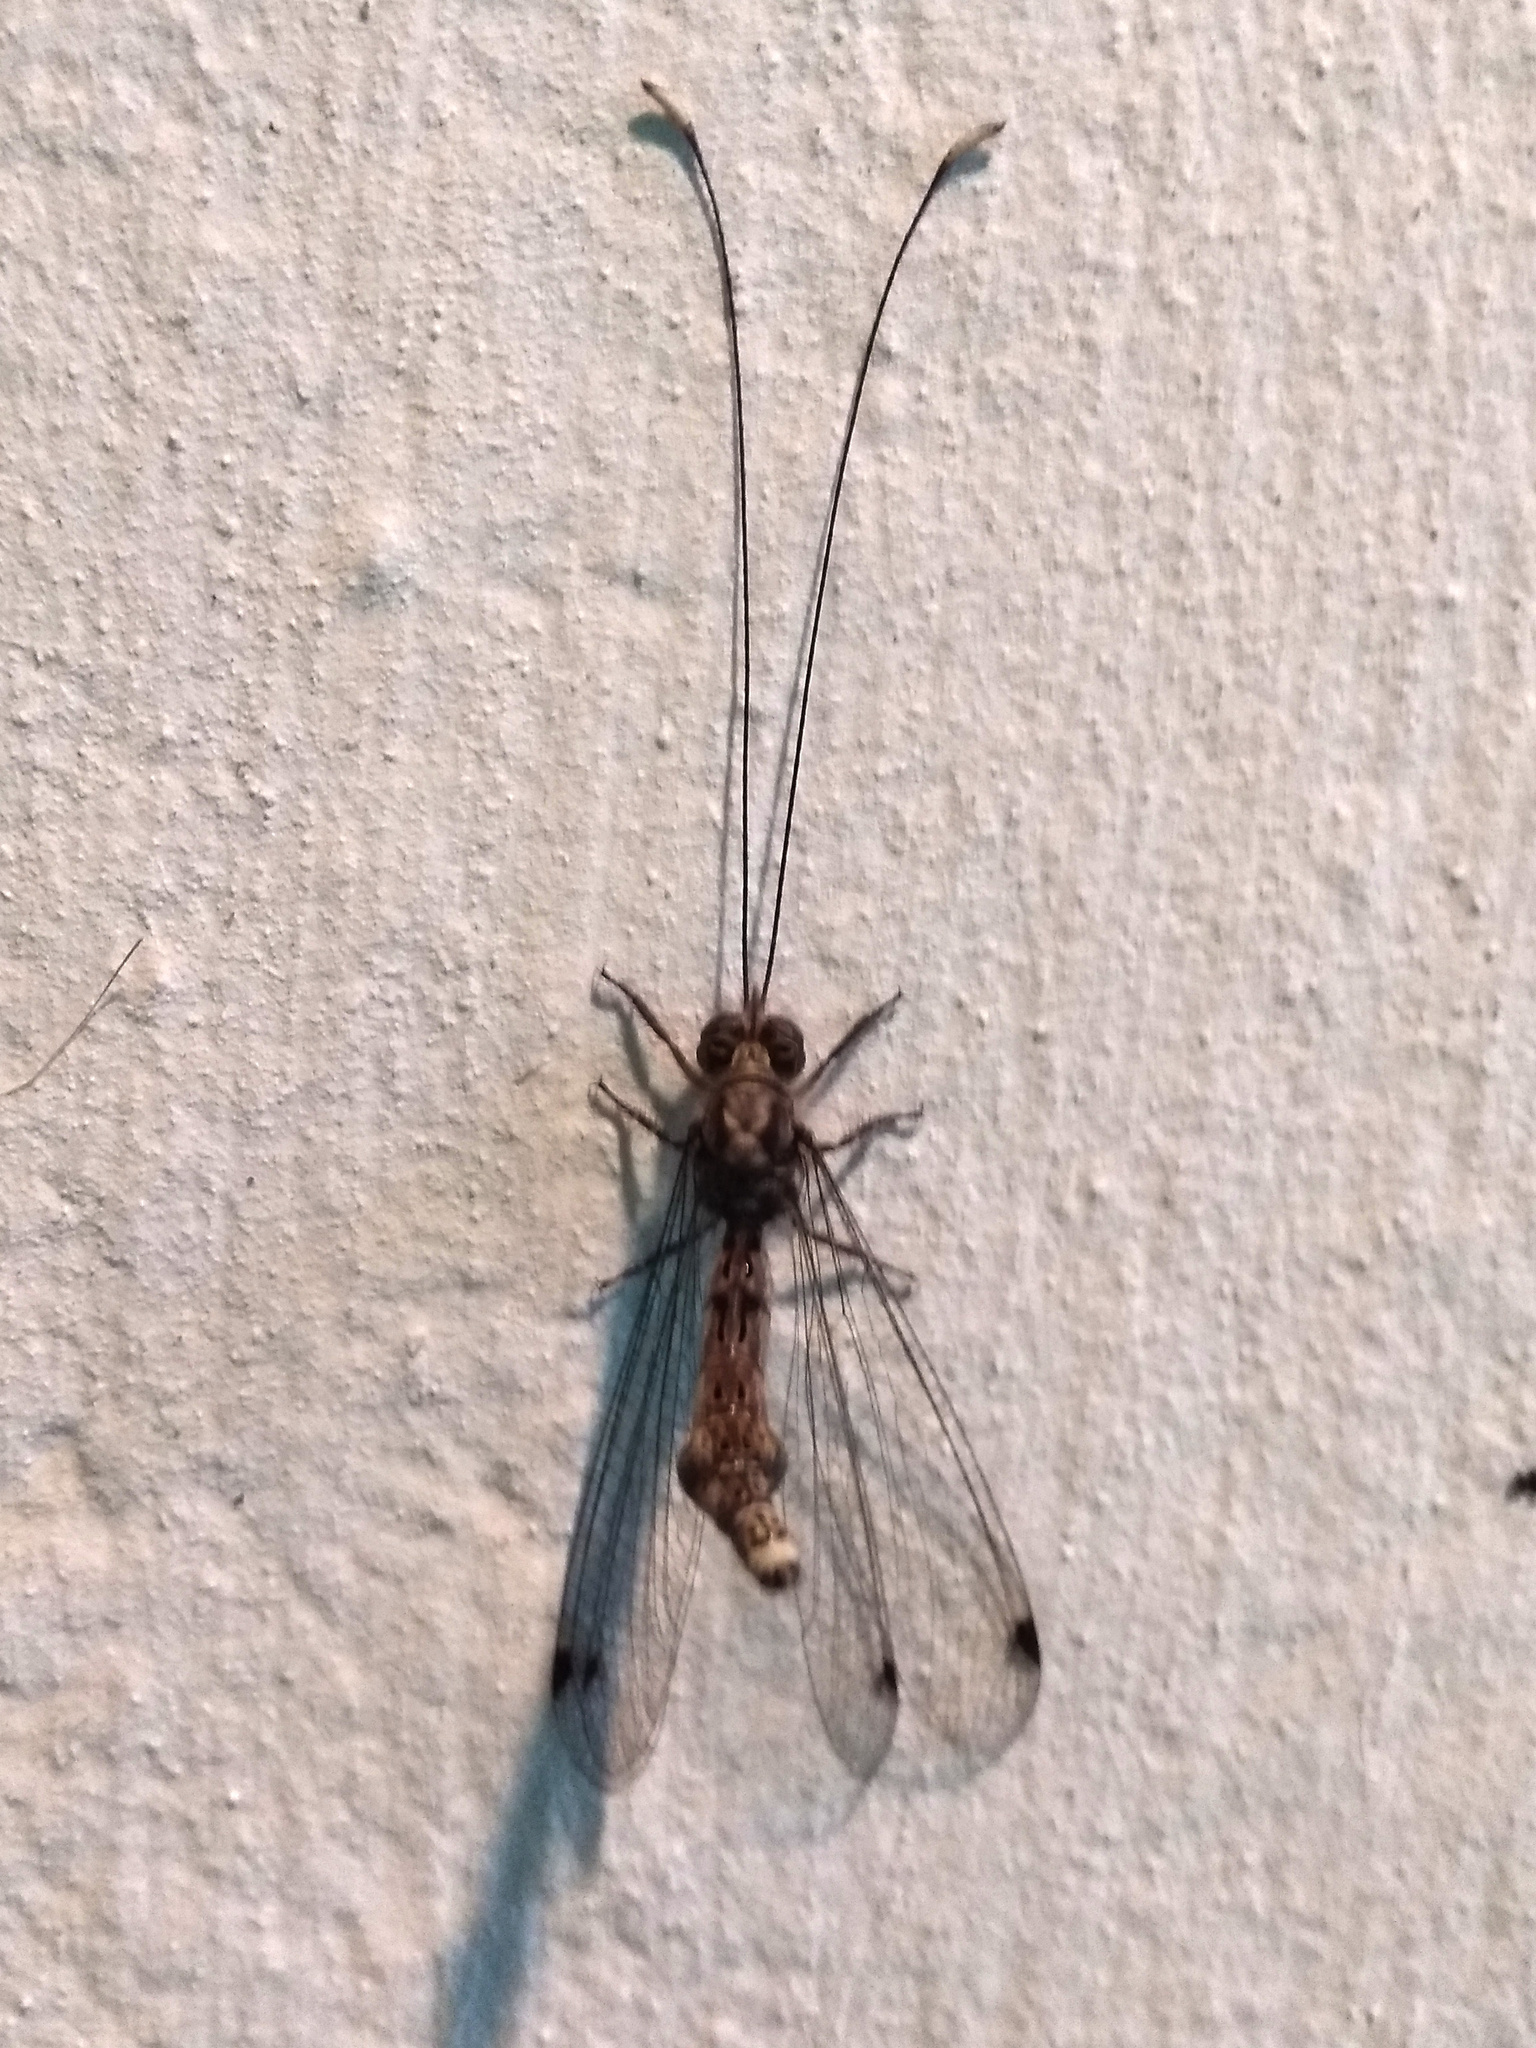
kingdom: Animalia
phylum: Arthropoda
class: Insecta
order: Neuroptera
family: Ascalaphidae
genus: Ascalorphne
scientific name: Ascalorphne macrocerca
